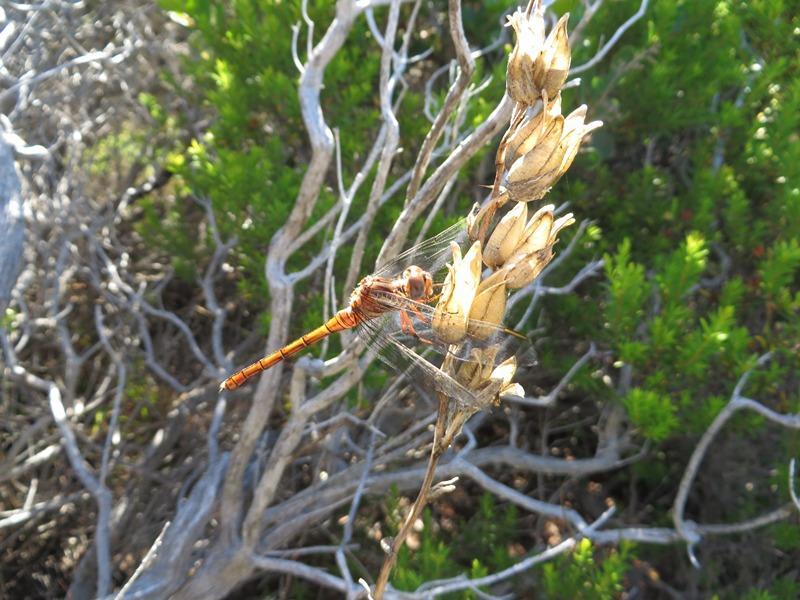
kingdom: Animalia
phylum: Arthropoda
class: Insecta
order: Odonata
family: Libellulidae
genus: Orthetrum
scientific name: Orthetrum julia
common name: Julia skimmer
